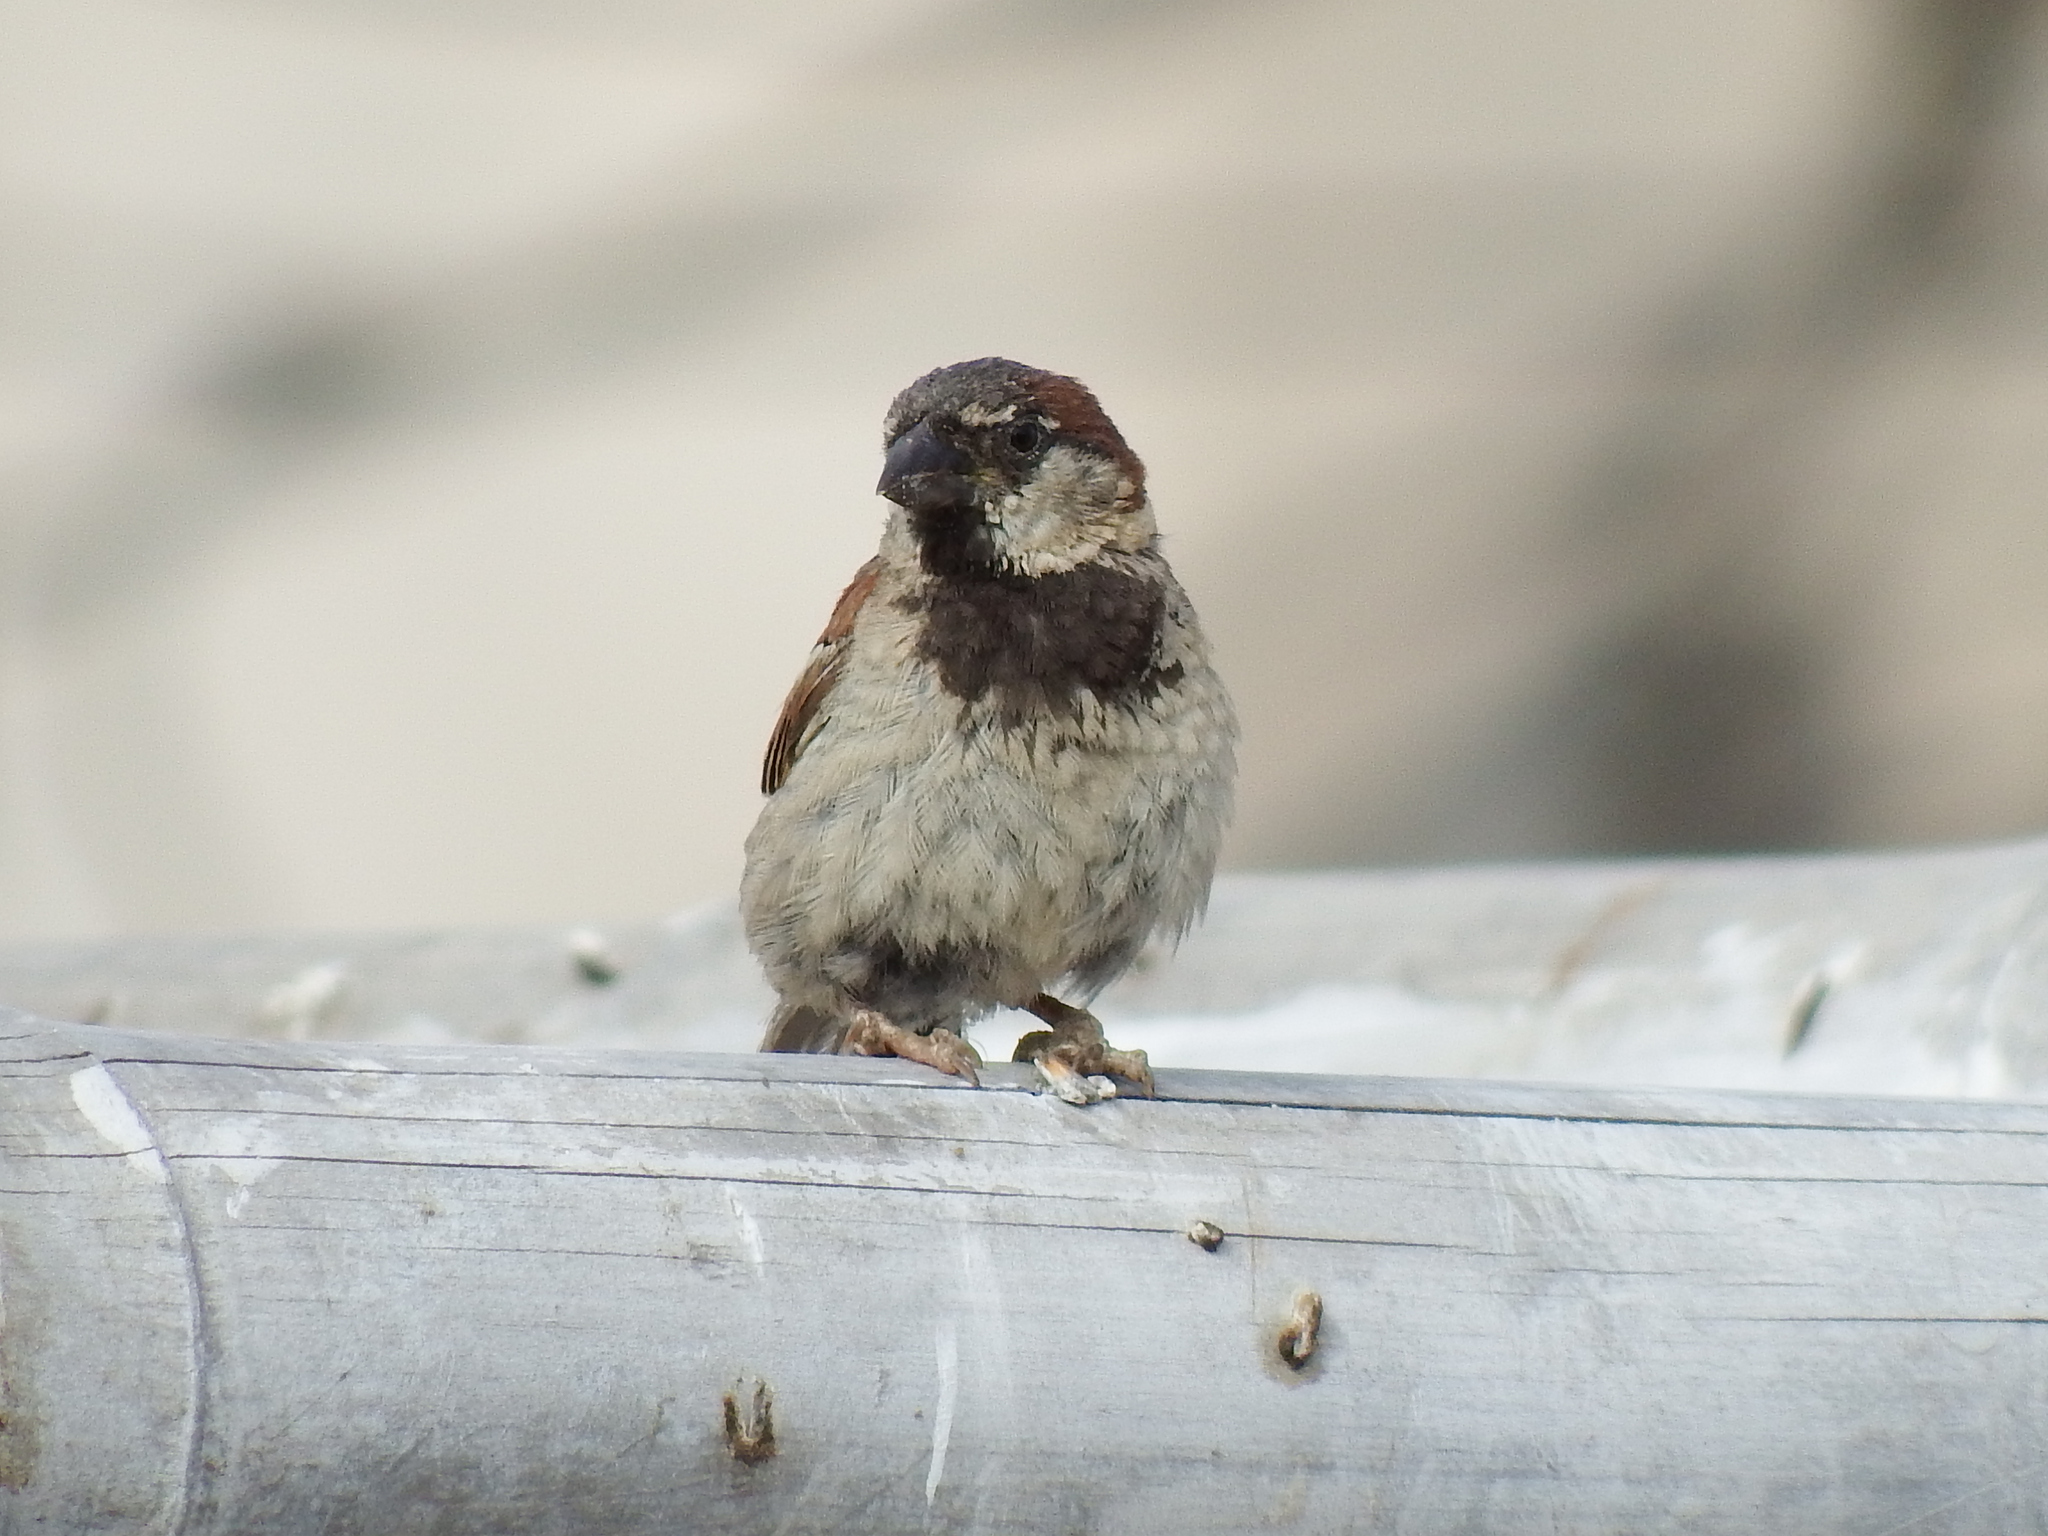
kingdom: Animalia
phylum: Chordata
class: Aves
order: Passeriformes
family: Passeridae
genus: Passer
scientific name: Passer domesticus
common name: House sparrow
